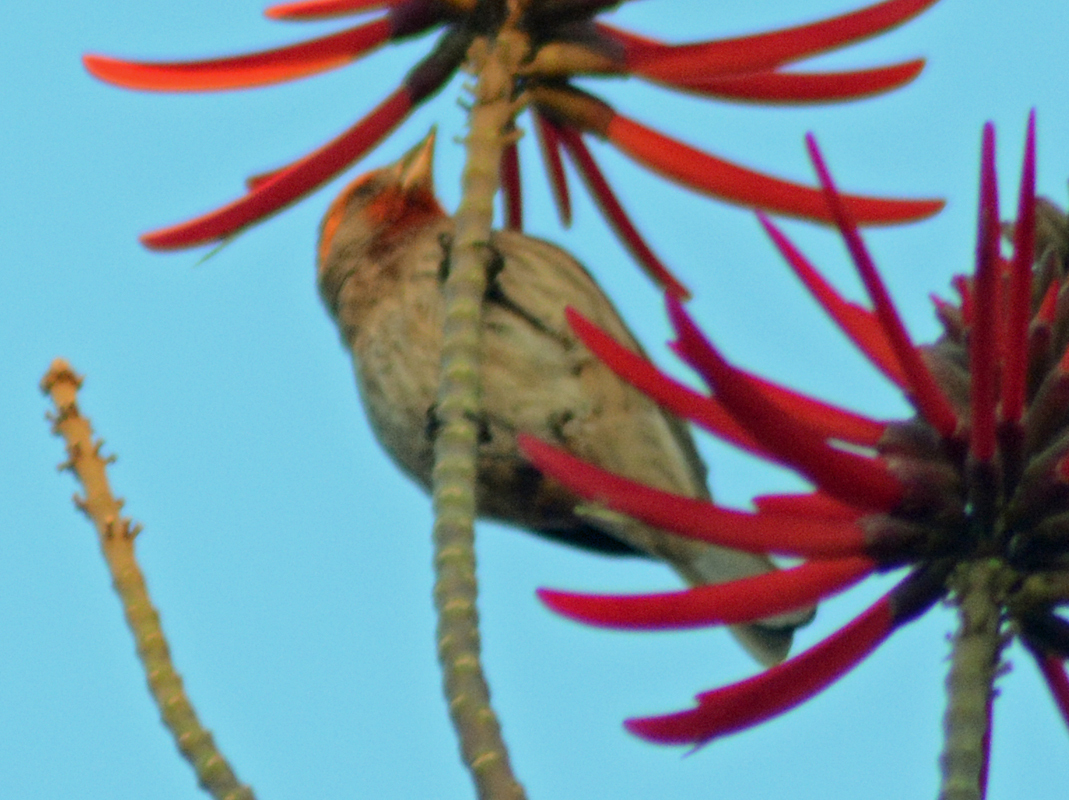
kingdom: Animalia
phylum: Chordata
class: Aves
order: Passeriformes
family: Fringillidae
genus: Haemorhous
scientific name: Haemorhous mexicanus
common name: House finch
